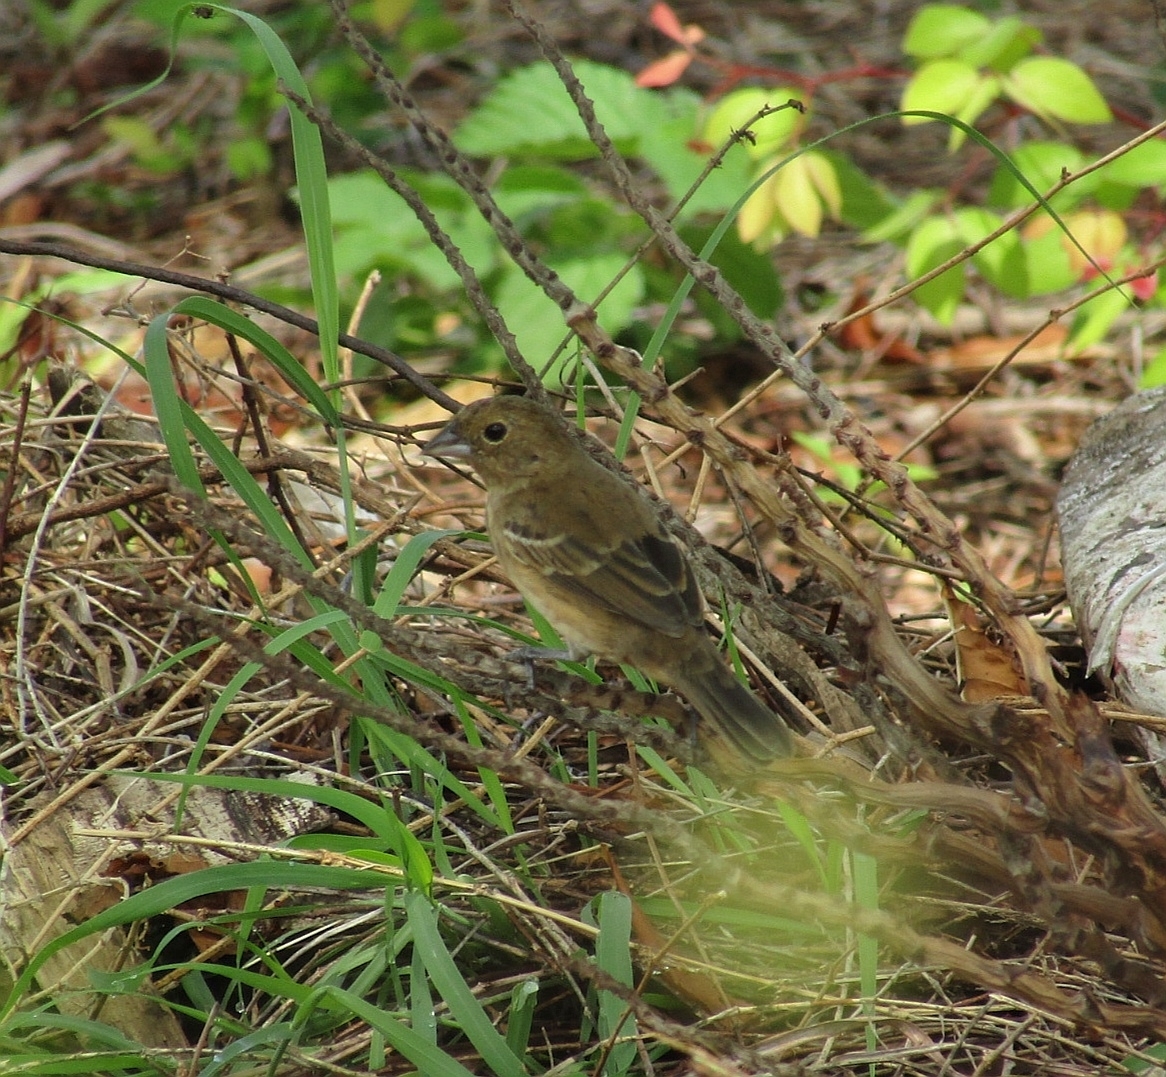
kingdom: Animalia
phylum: Chordata
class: Aves
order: Passeriformes
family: Thraupidae
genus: Volatinia
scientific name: Volatinia jacarina
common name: Blue-black grassquit
